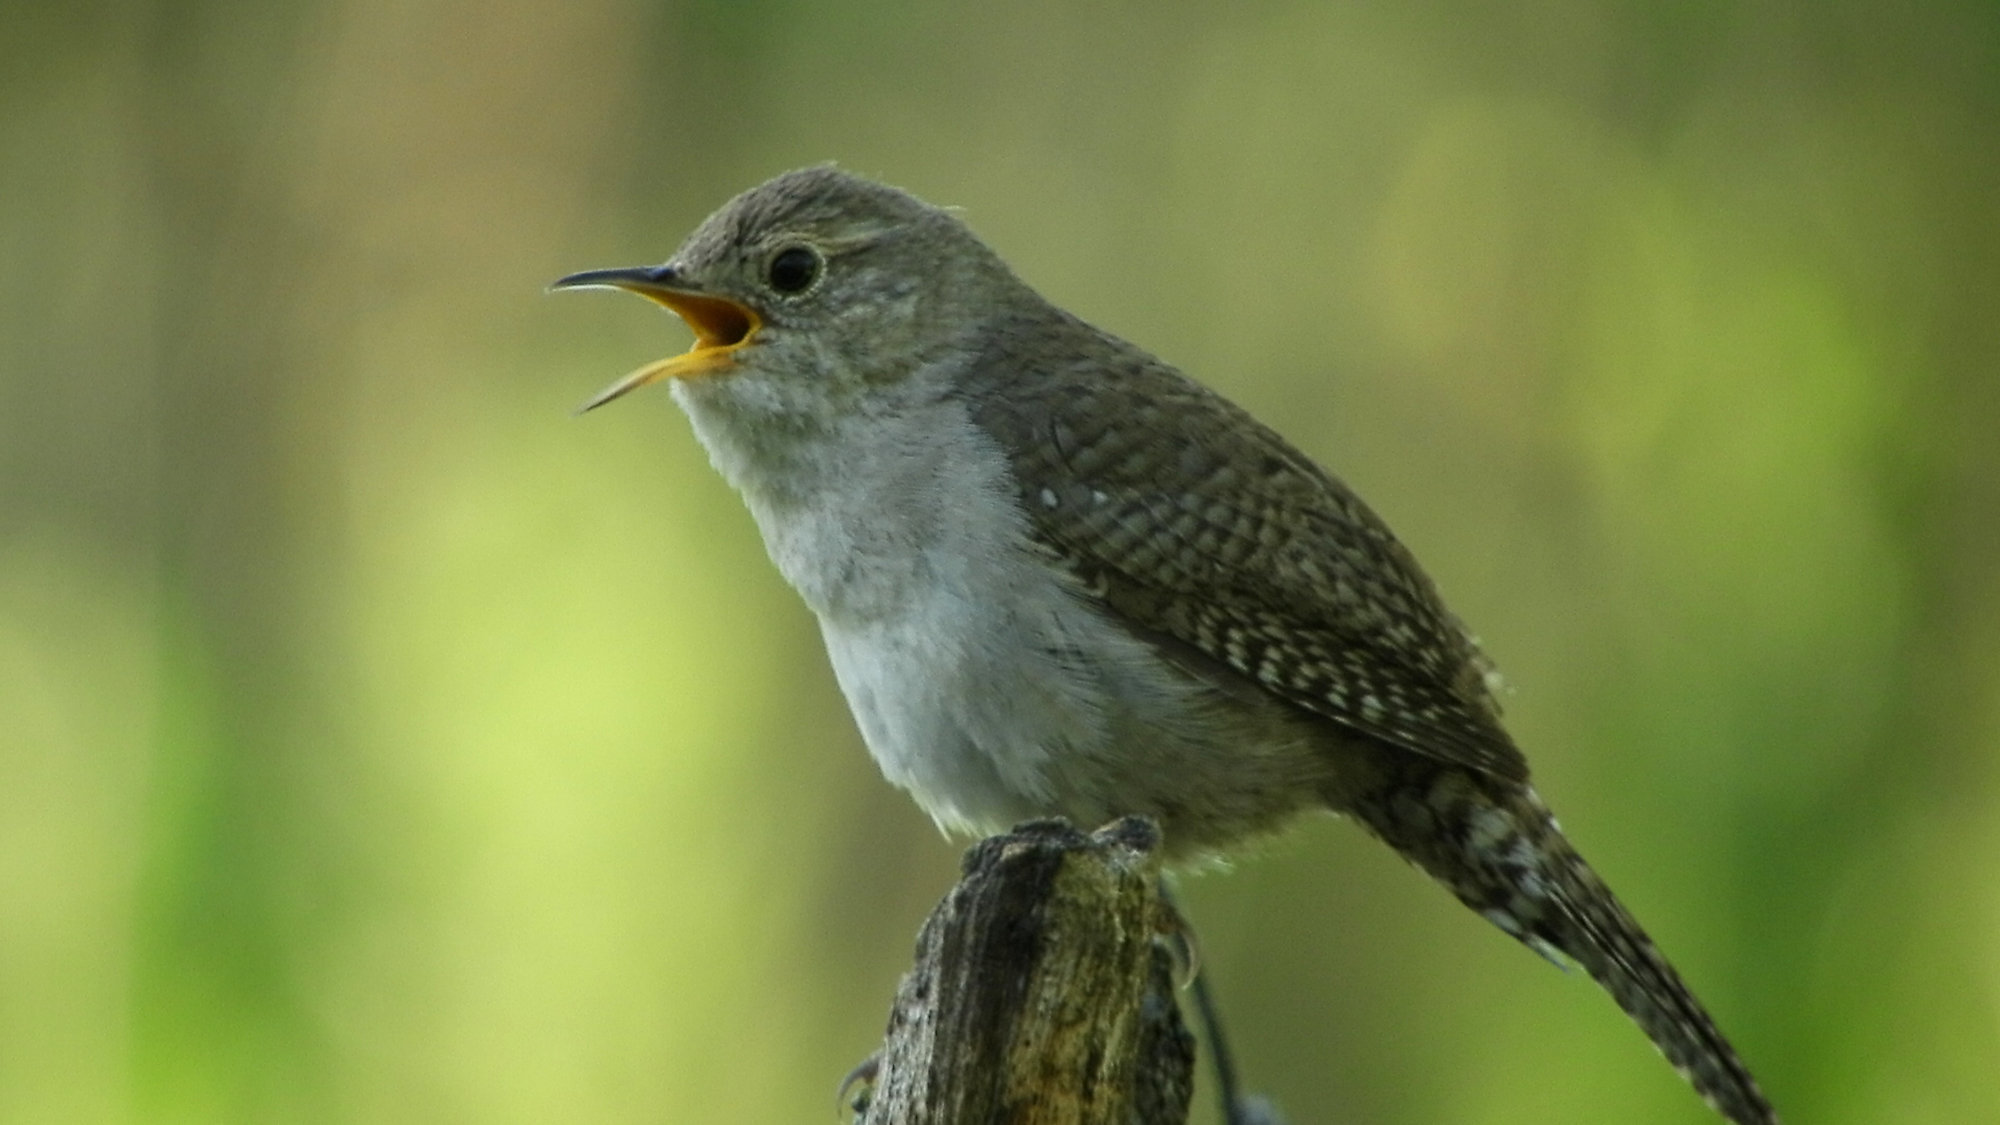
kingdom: Animalia
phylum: Chordata
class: Aves
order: Passeriformes
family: Troglodytidae
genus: Troglodytes
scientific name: Troglodytes aedon
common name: House wren
